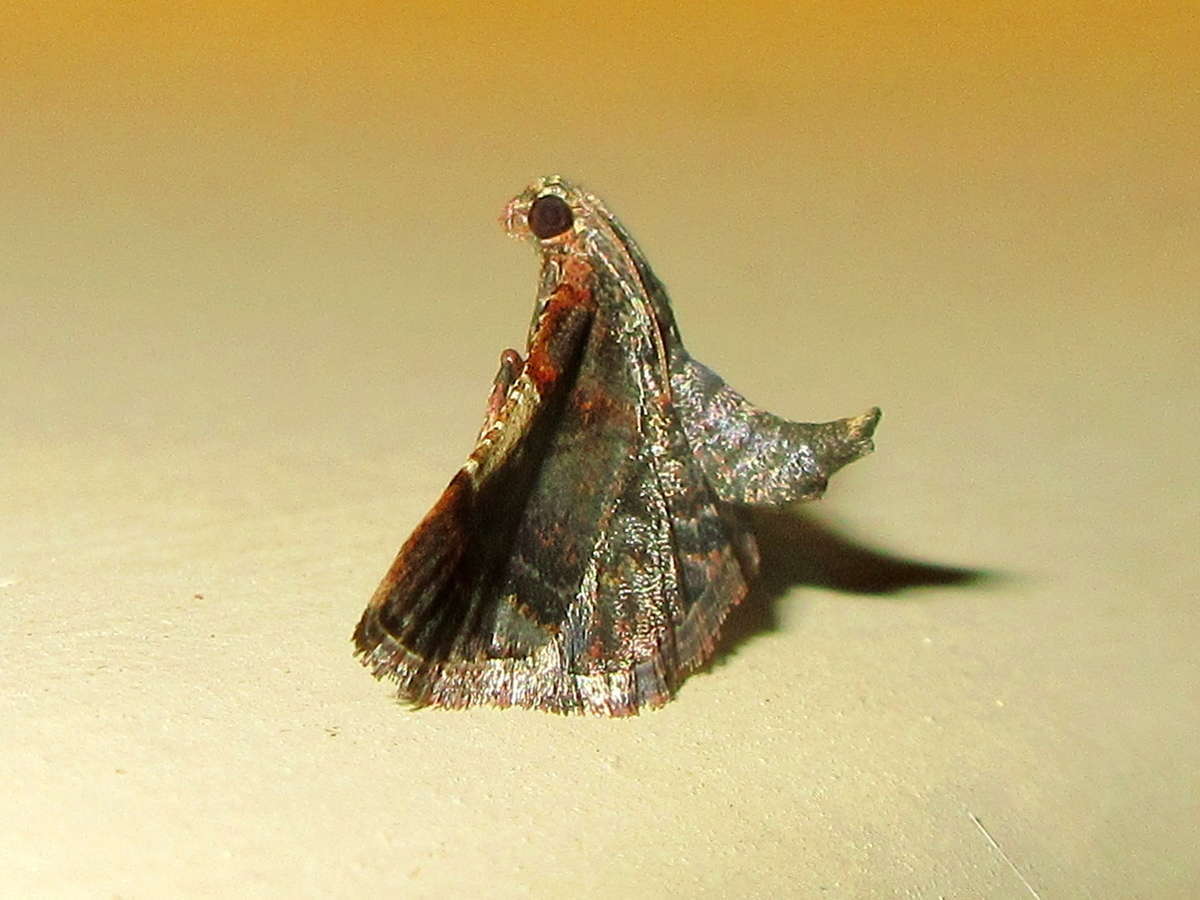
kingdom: Animalia
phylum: Arthropoda
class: Insecta
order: Lepidoptera
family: Pyralidae
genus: Scenedra
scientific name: Scenedra decoratalis
